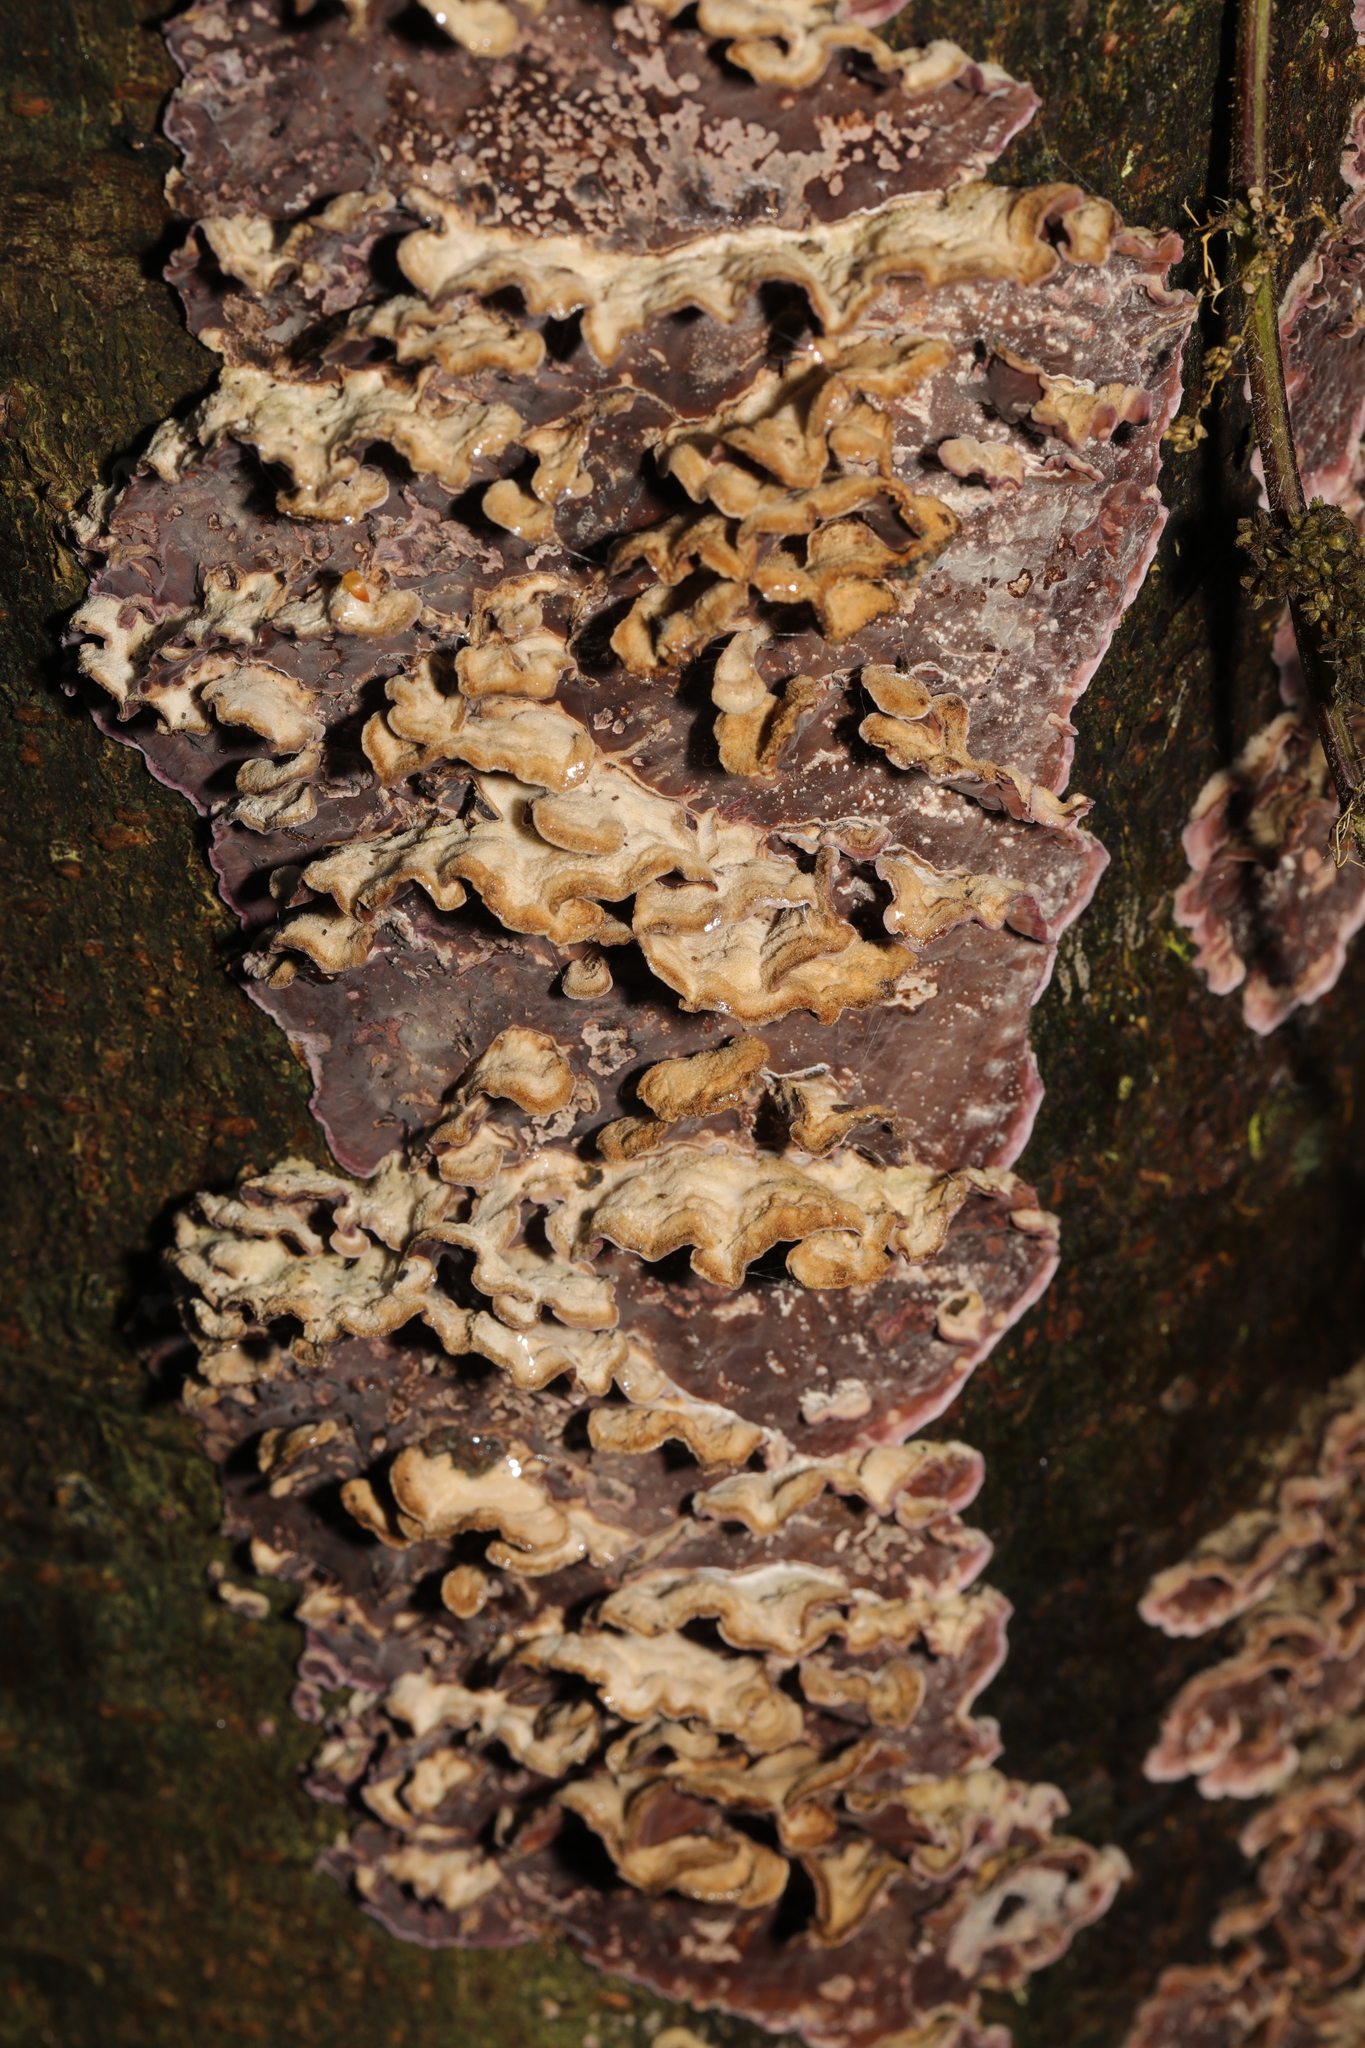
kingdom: Fungi
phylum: Basidiomycota
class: Agaricomycetes
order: Agaricales
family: Cyphellaceae
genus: Chondrostereum
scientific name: Chondrostereum purpureum
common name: Silver leaf disease
